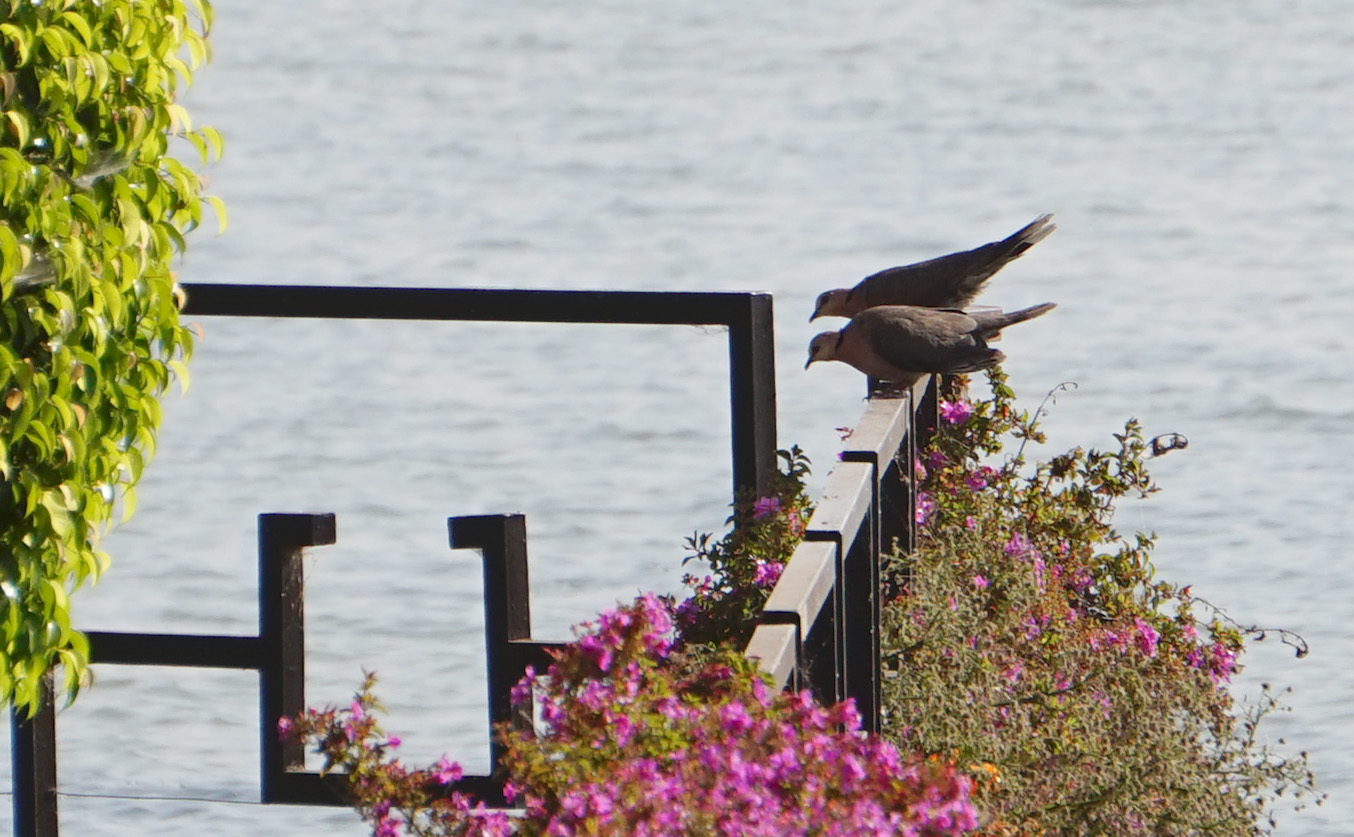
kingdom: Animalia
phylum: Chordata
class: Aves
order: Columbiformes
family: Columbidae
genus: Streptopelia
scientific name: Streptopelia semitorquata
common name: Red-eyed dove
